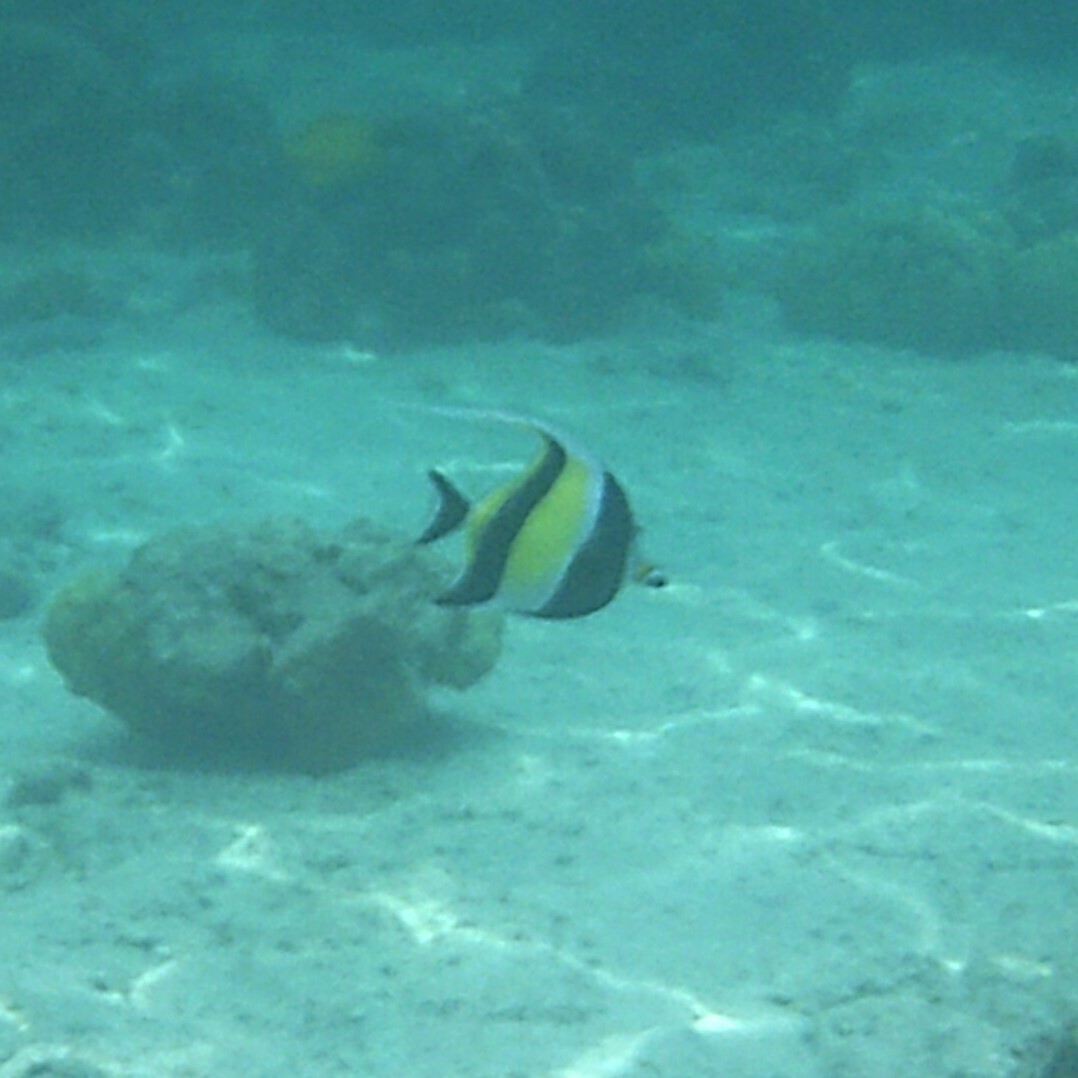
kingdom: Animalia
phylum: Chordata
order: Perciformes
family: Zanclidae
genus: Zanclus
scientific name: Zanclus cornutus
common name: Moorish idol
